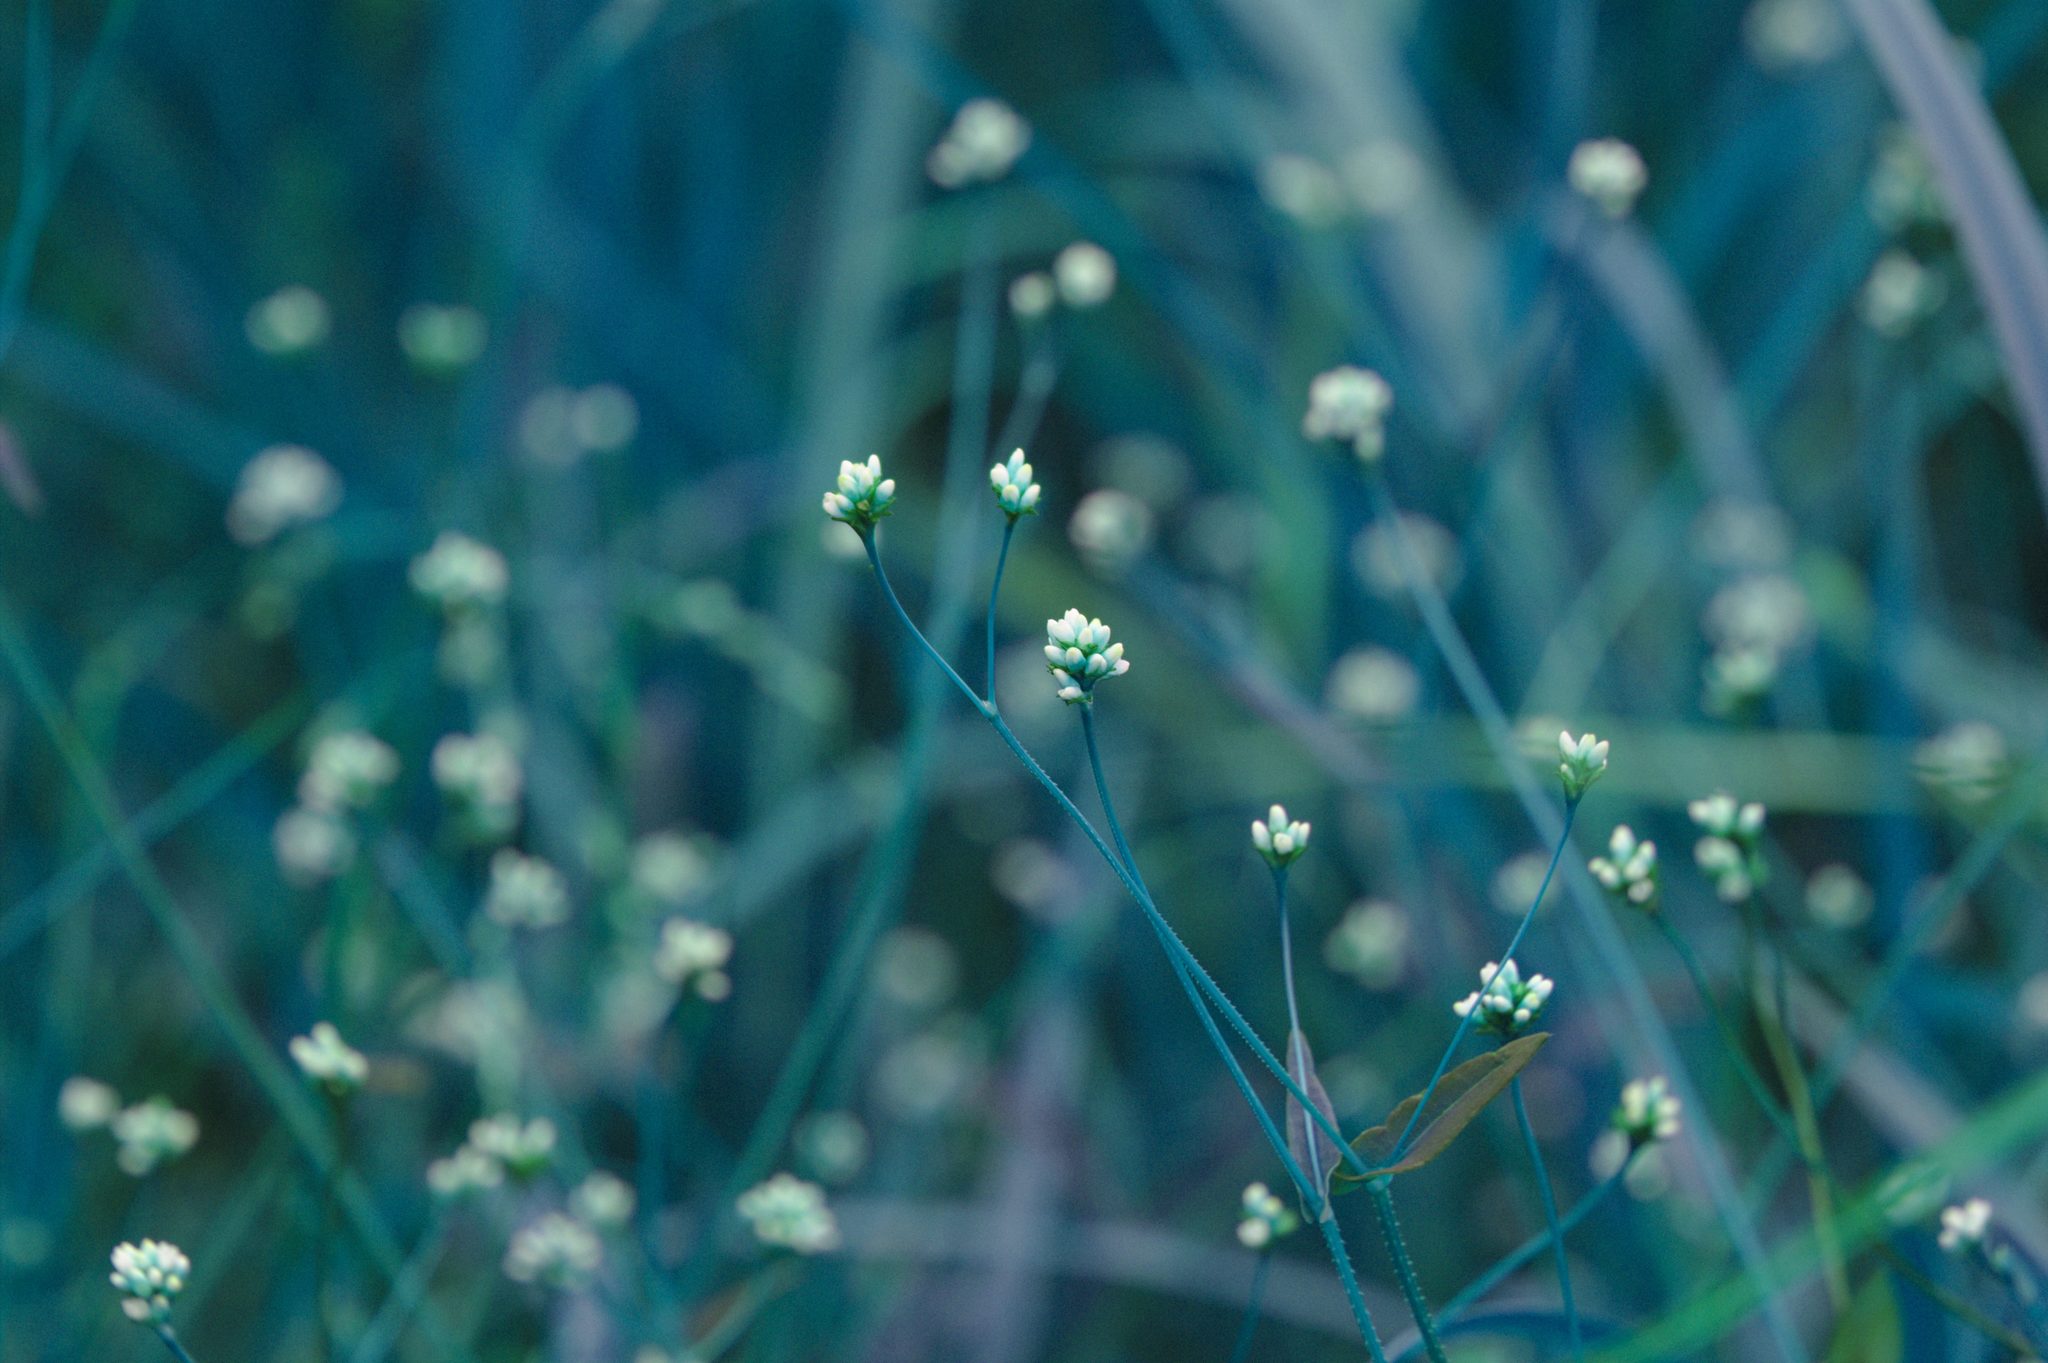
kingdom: Plantae
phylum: Tracheophyta
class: Magnoliopsida
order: Caryophyllales
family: Polygonaceae
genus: Persicaria
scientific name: Persicaria sagittata
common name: American tearthumb
